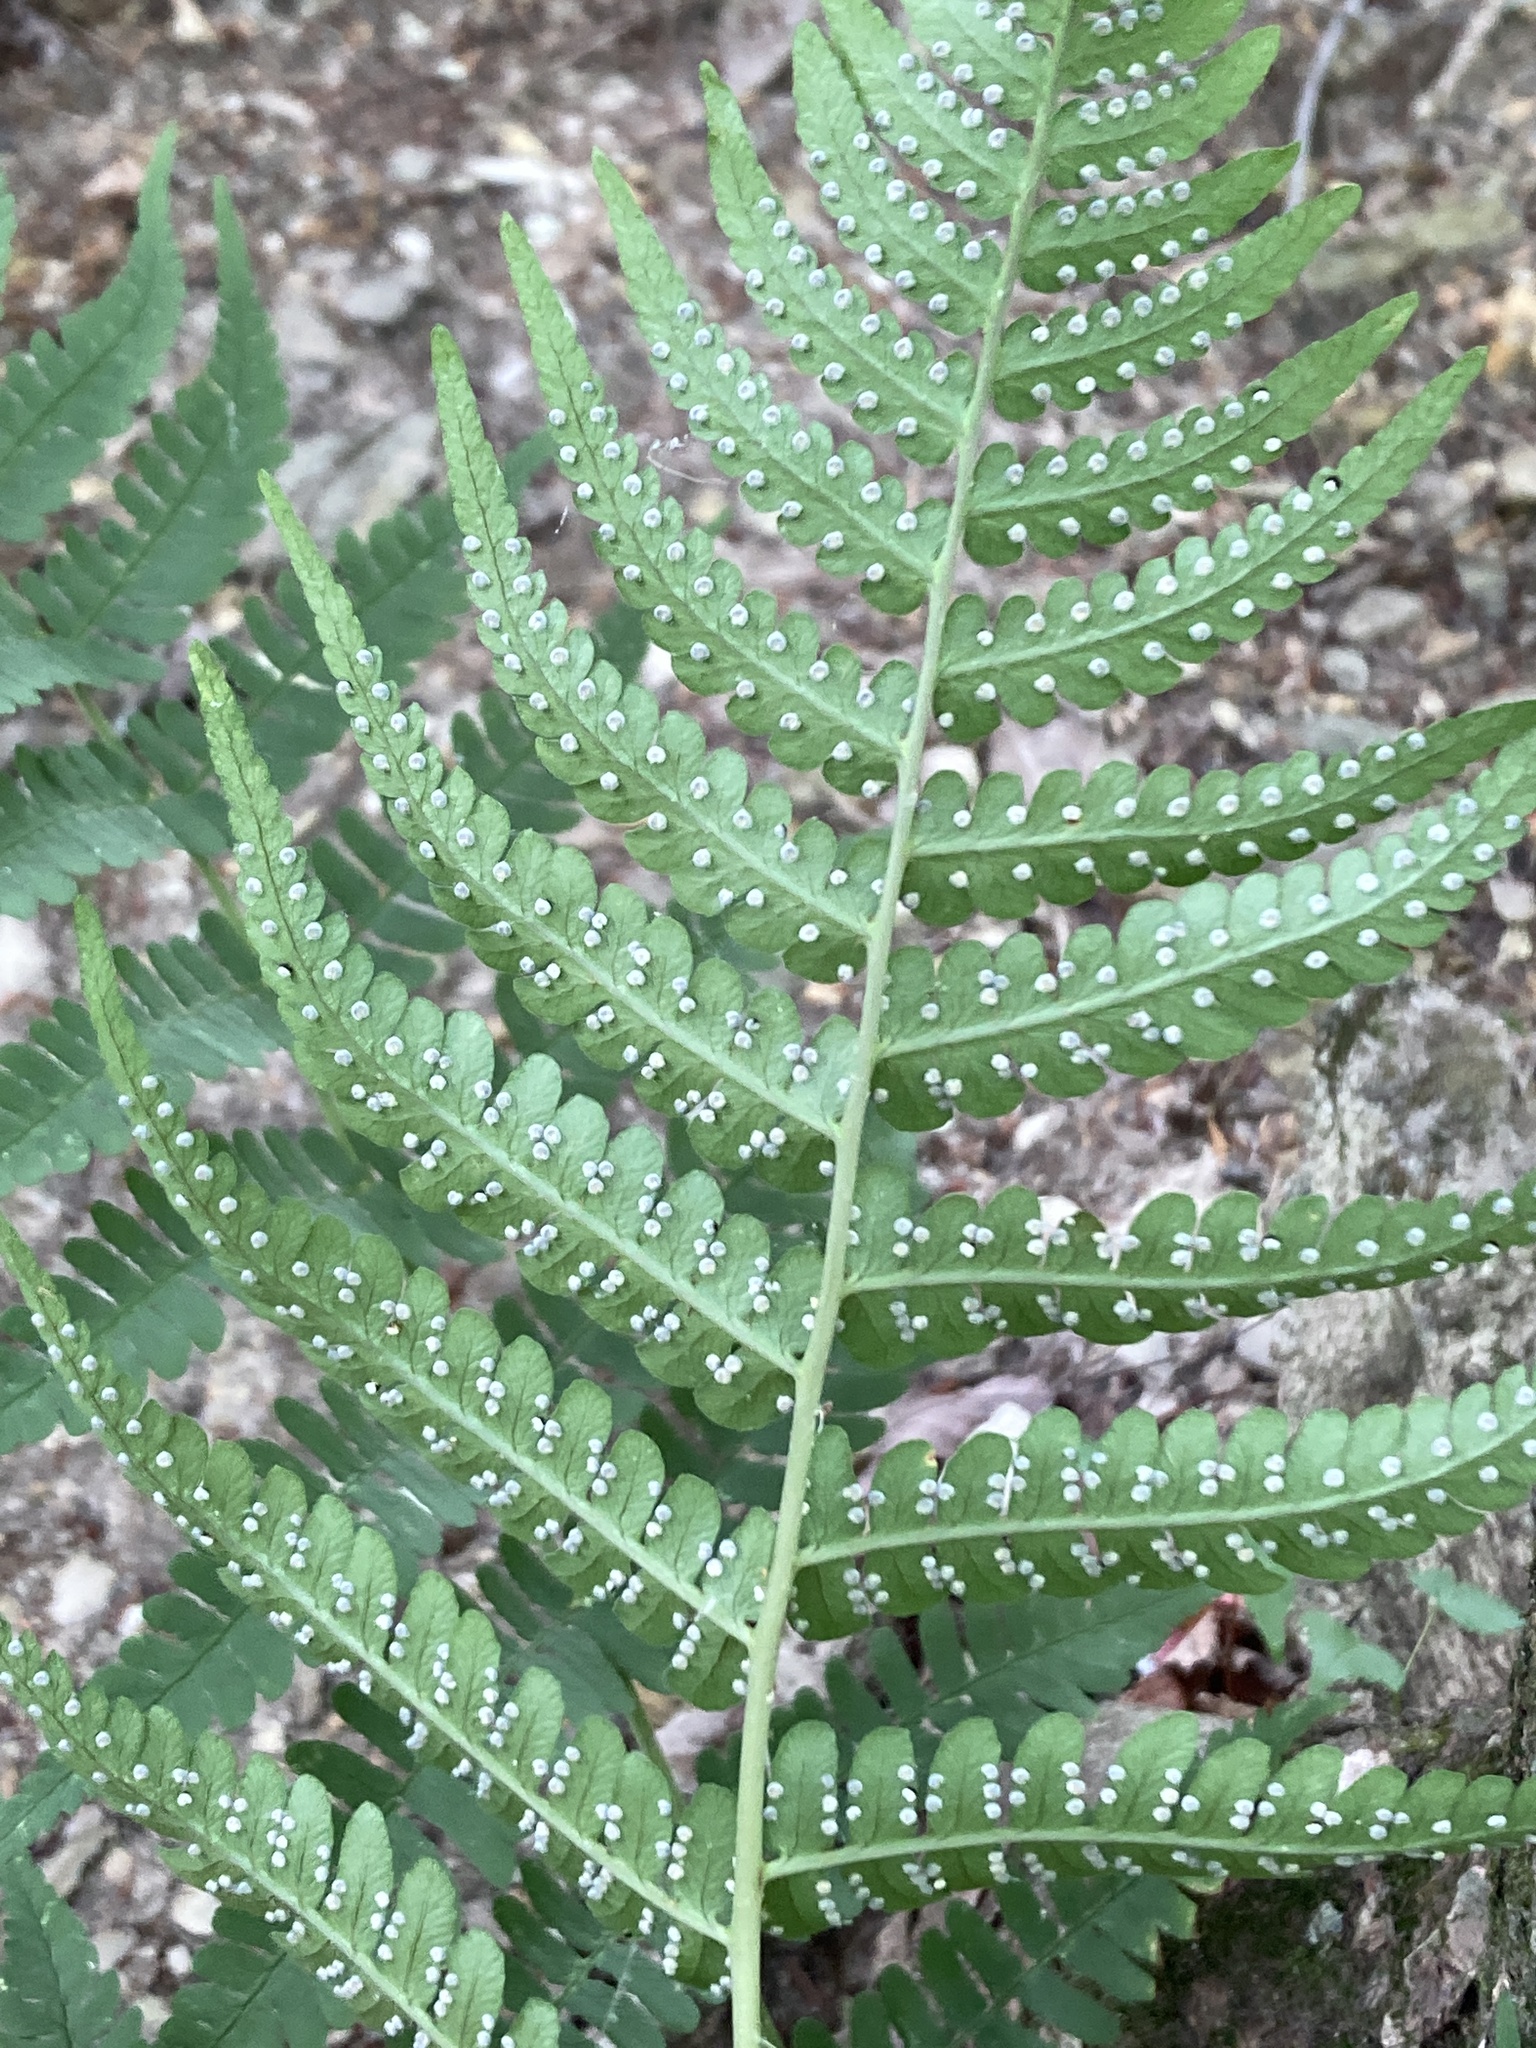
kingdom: Plantae
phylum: Tracheophyta
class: Polypodiopsida
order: Polypodiales
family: Dryopteridaceae
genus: Dryopteris
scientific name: Dryopteris marginalis
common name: Marginal wood fern
